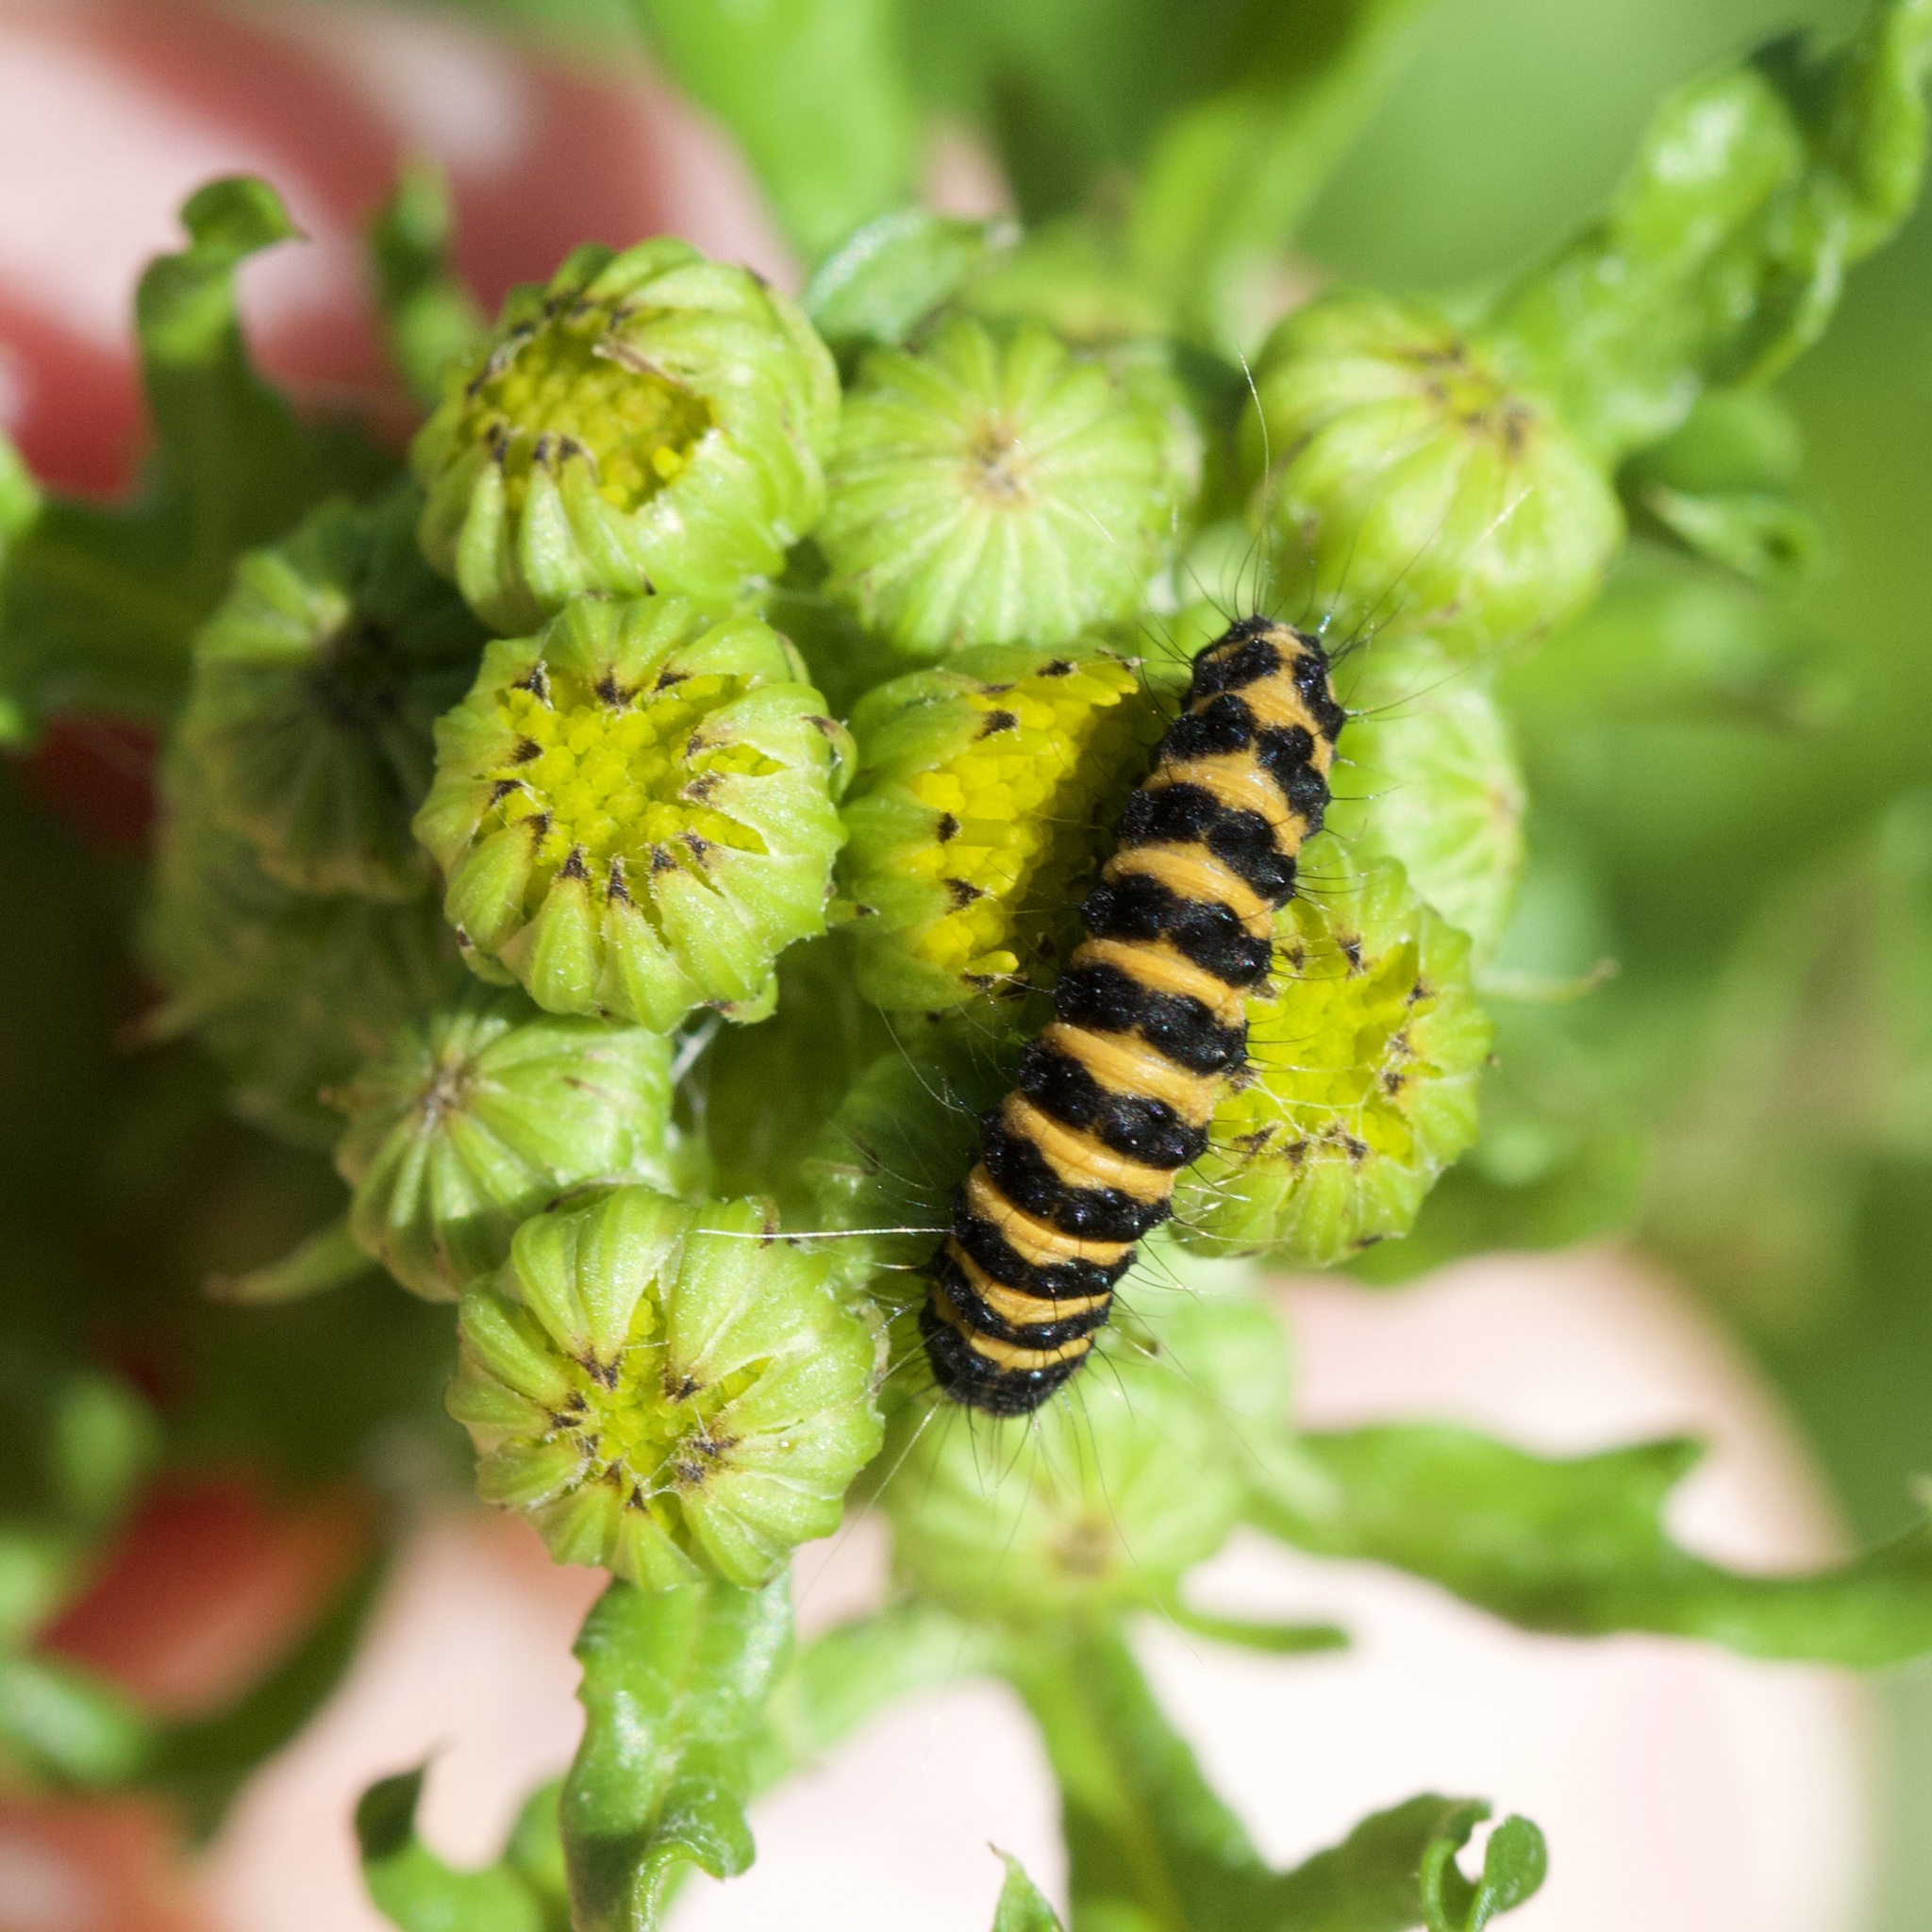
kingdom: Animalia
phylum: Arthropoda
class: Insecta
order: Lepidoptera
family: Erebidae
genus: Tyria
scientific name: Tyria jacobaeae
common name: Cinnabar
